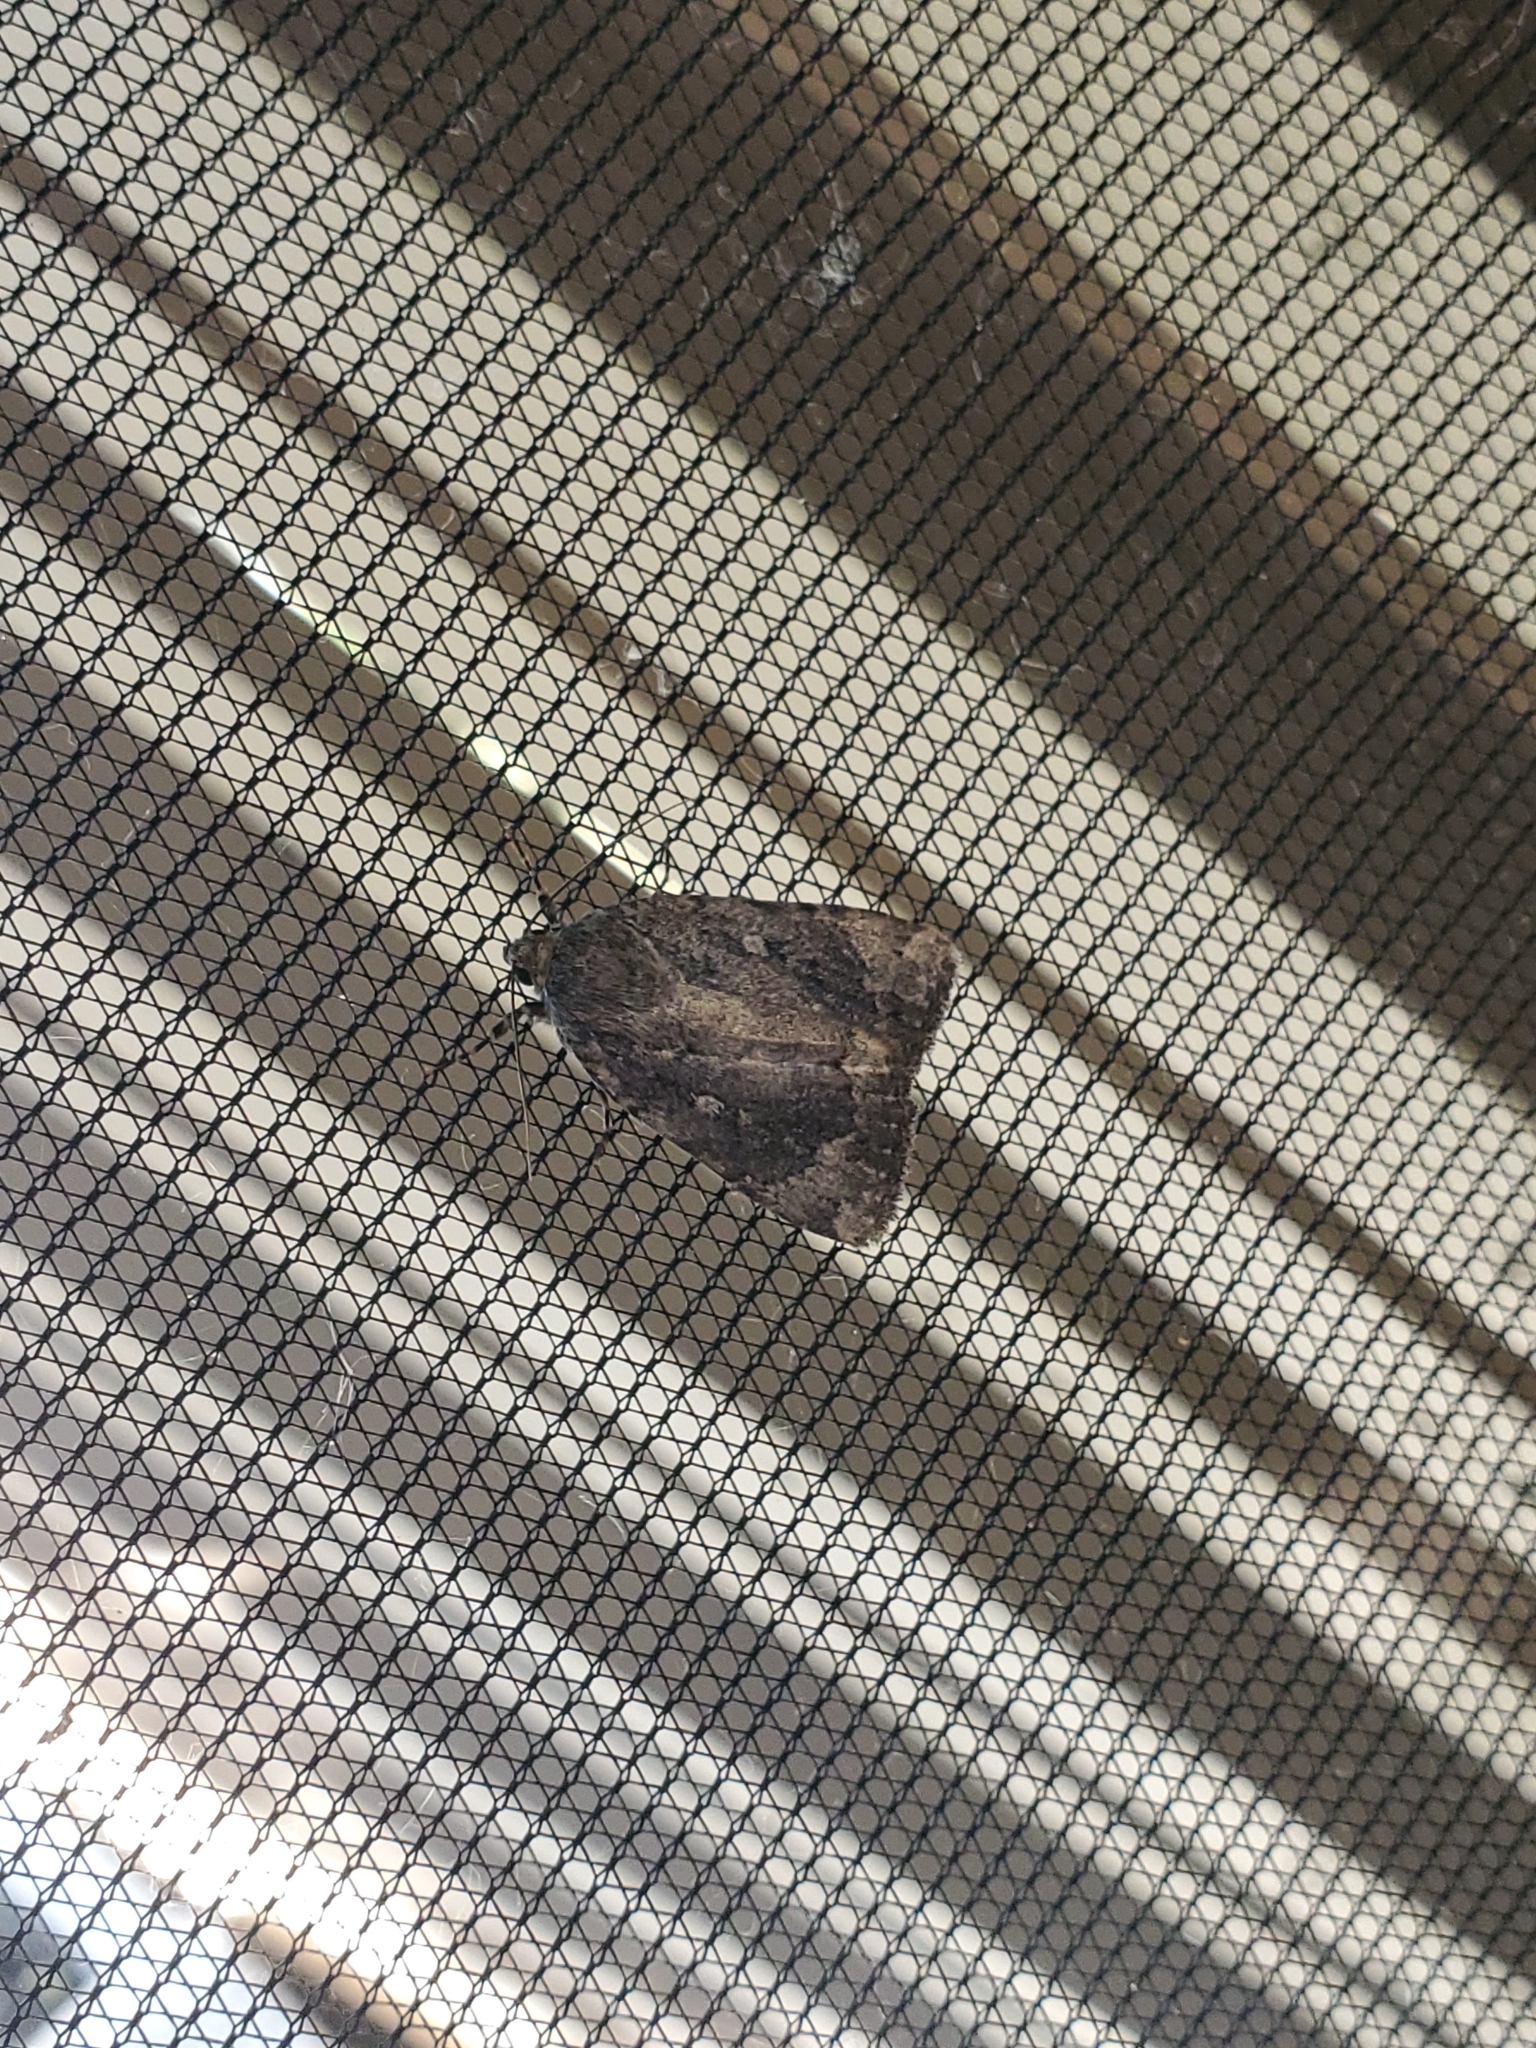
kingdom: Animalia
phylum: Arthropoda
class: Insecta
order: Lepidoptera
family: Noctuidae
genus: Amphipyra
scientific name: Amphipyra pyramidoides
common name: American copper underwing
